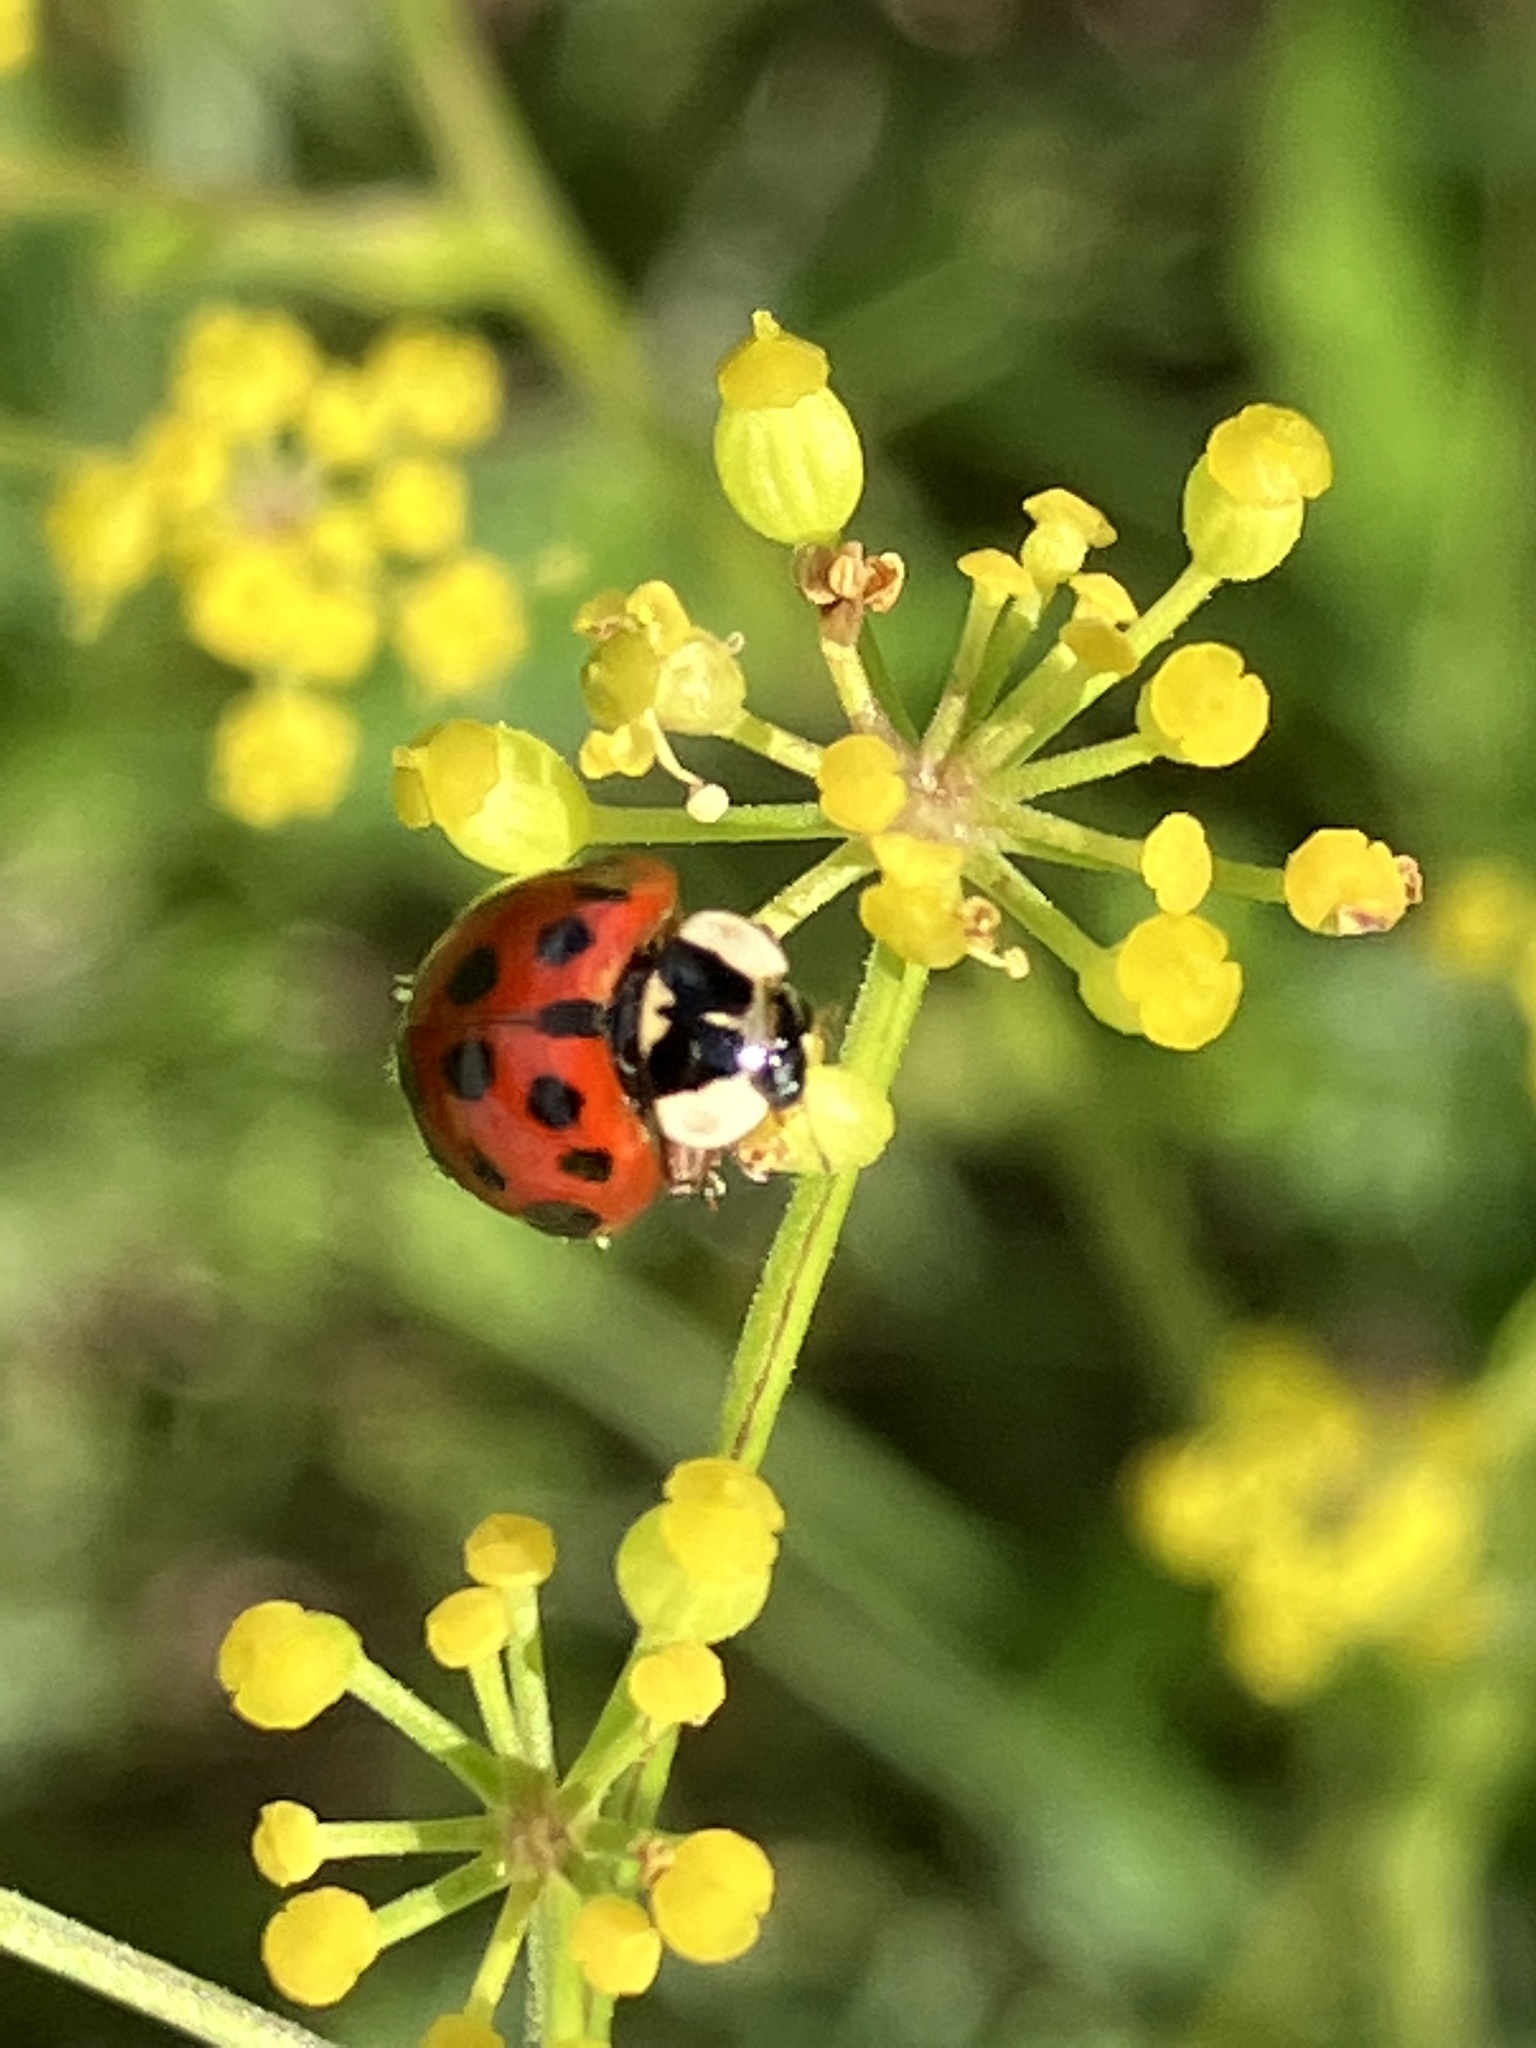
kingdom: Animalia
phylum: Arthropoda
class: Insecta
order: Coleoptera
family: Coccinellidae
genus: Harmonia
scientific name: Harmonia axyridis
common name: Harlequin ladybird
